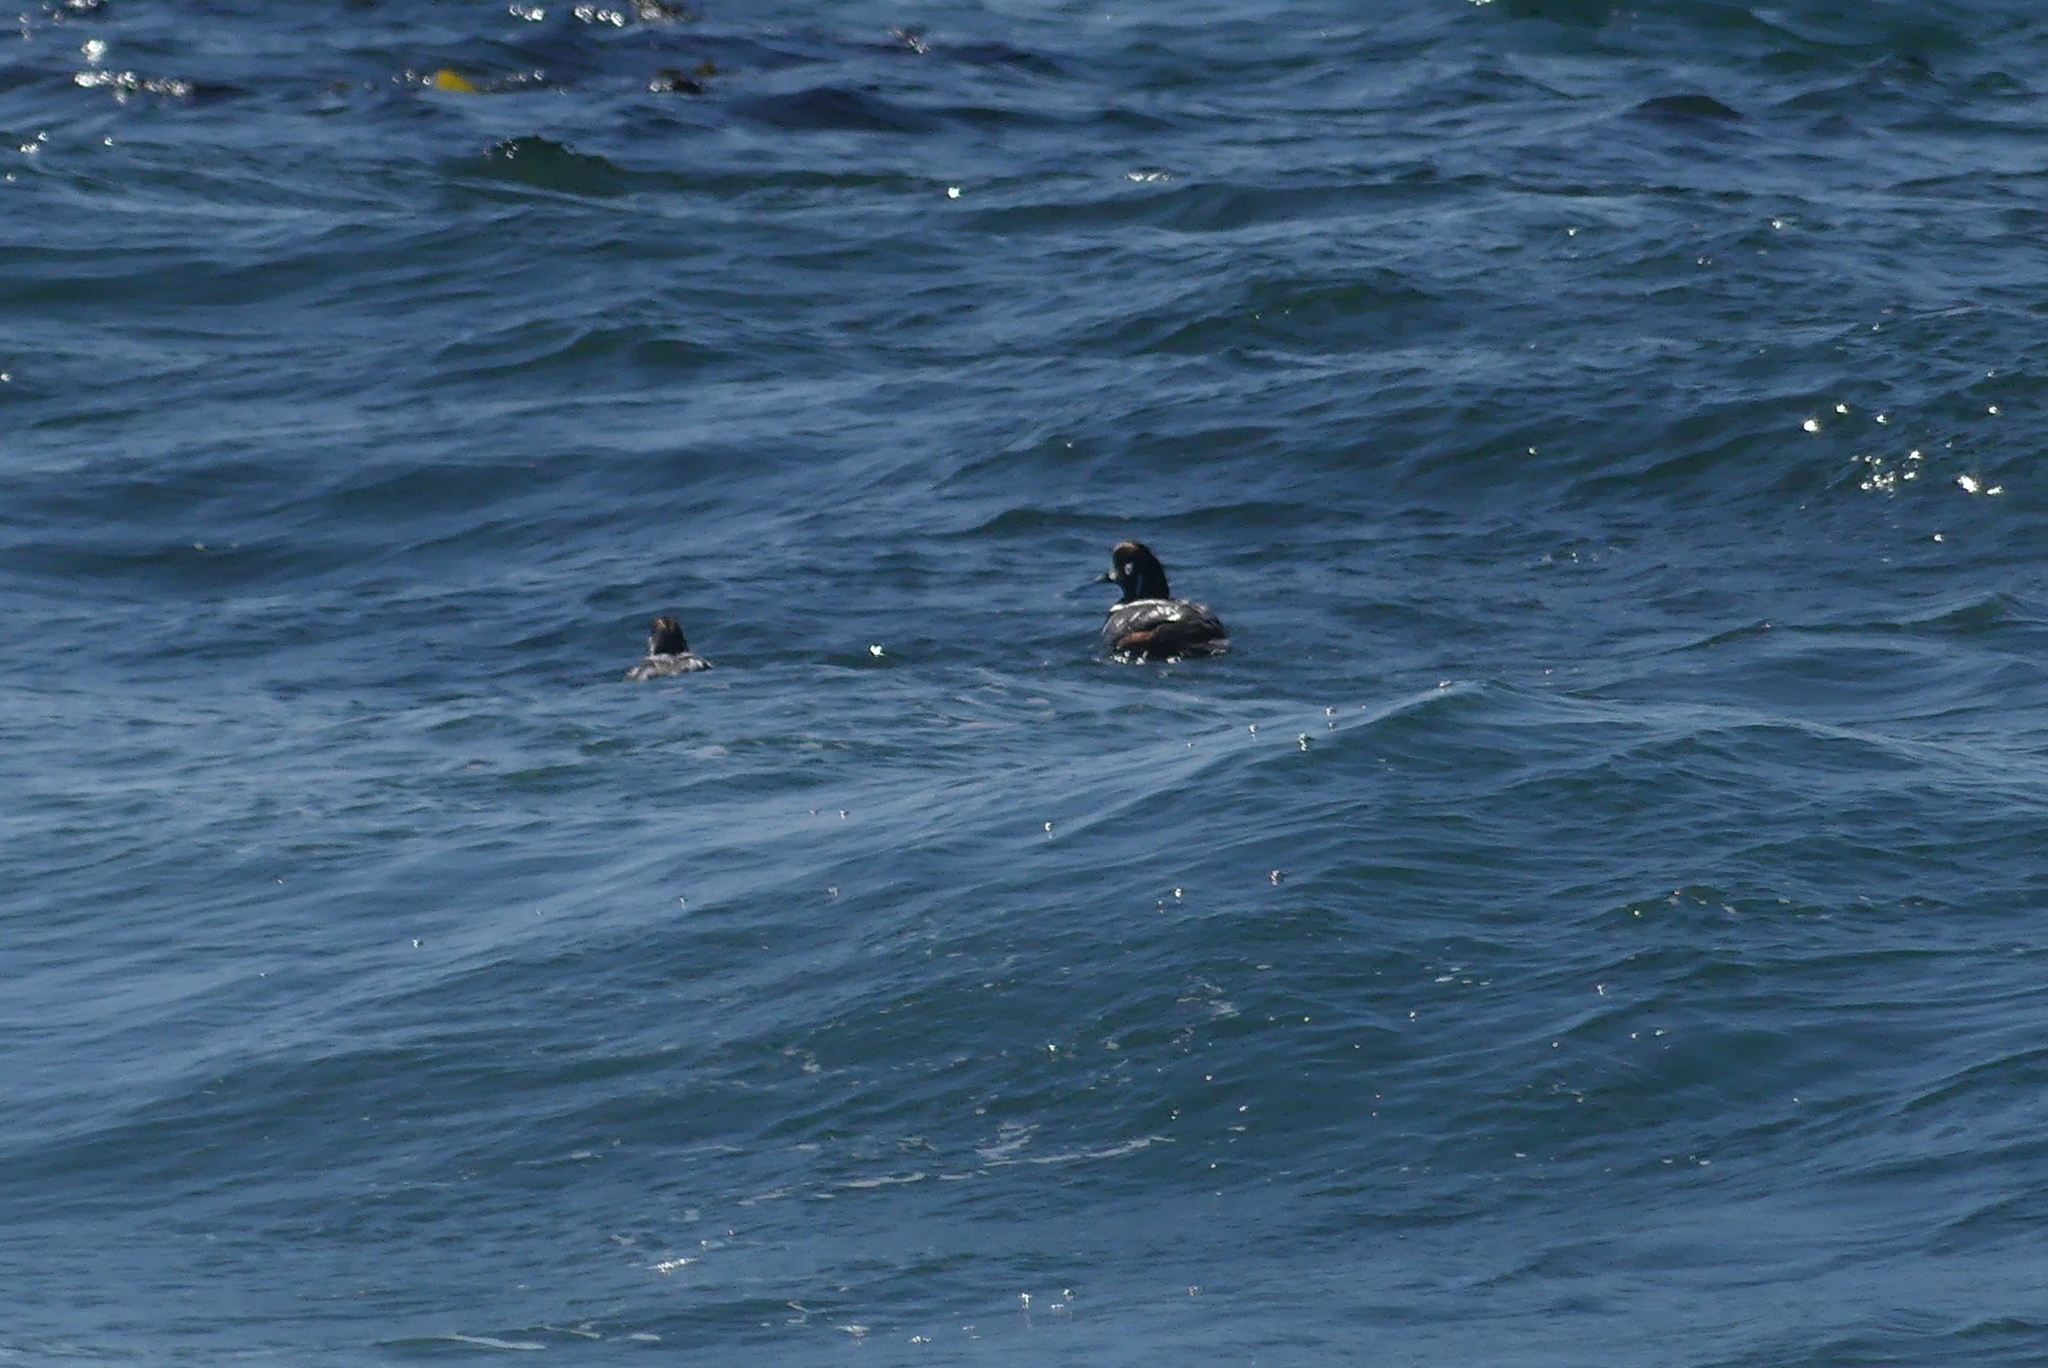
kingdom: Animalia
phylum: Chordata
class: Aves
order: Anseriformes
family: Anatidae
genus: Histrionicus
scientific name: Histrionicus histrionicus
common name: Harlequin duck
